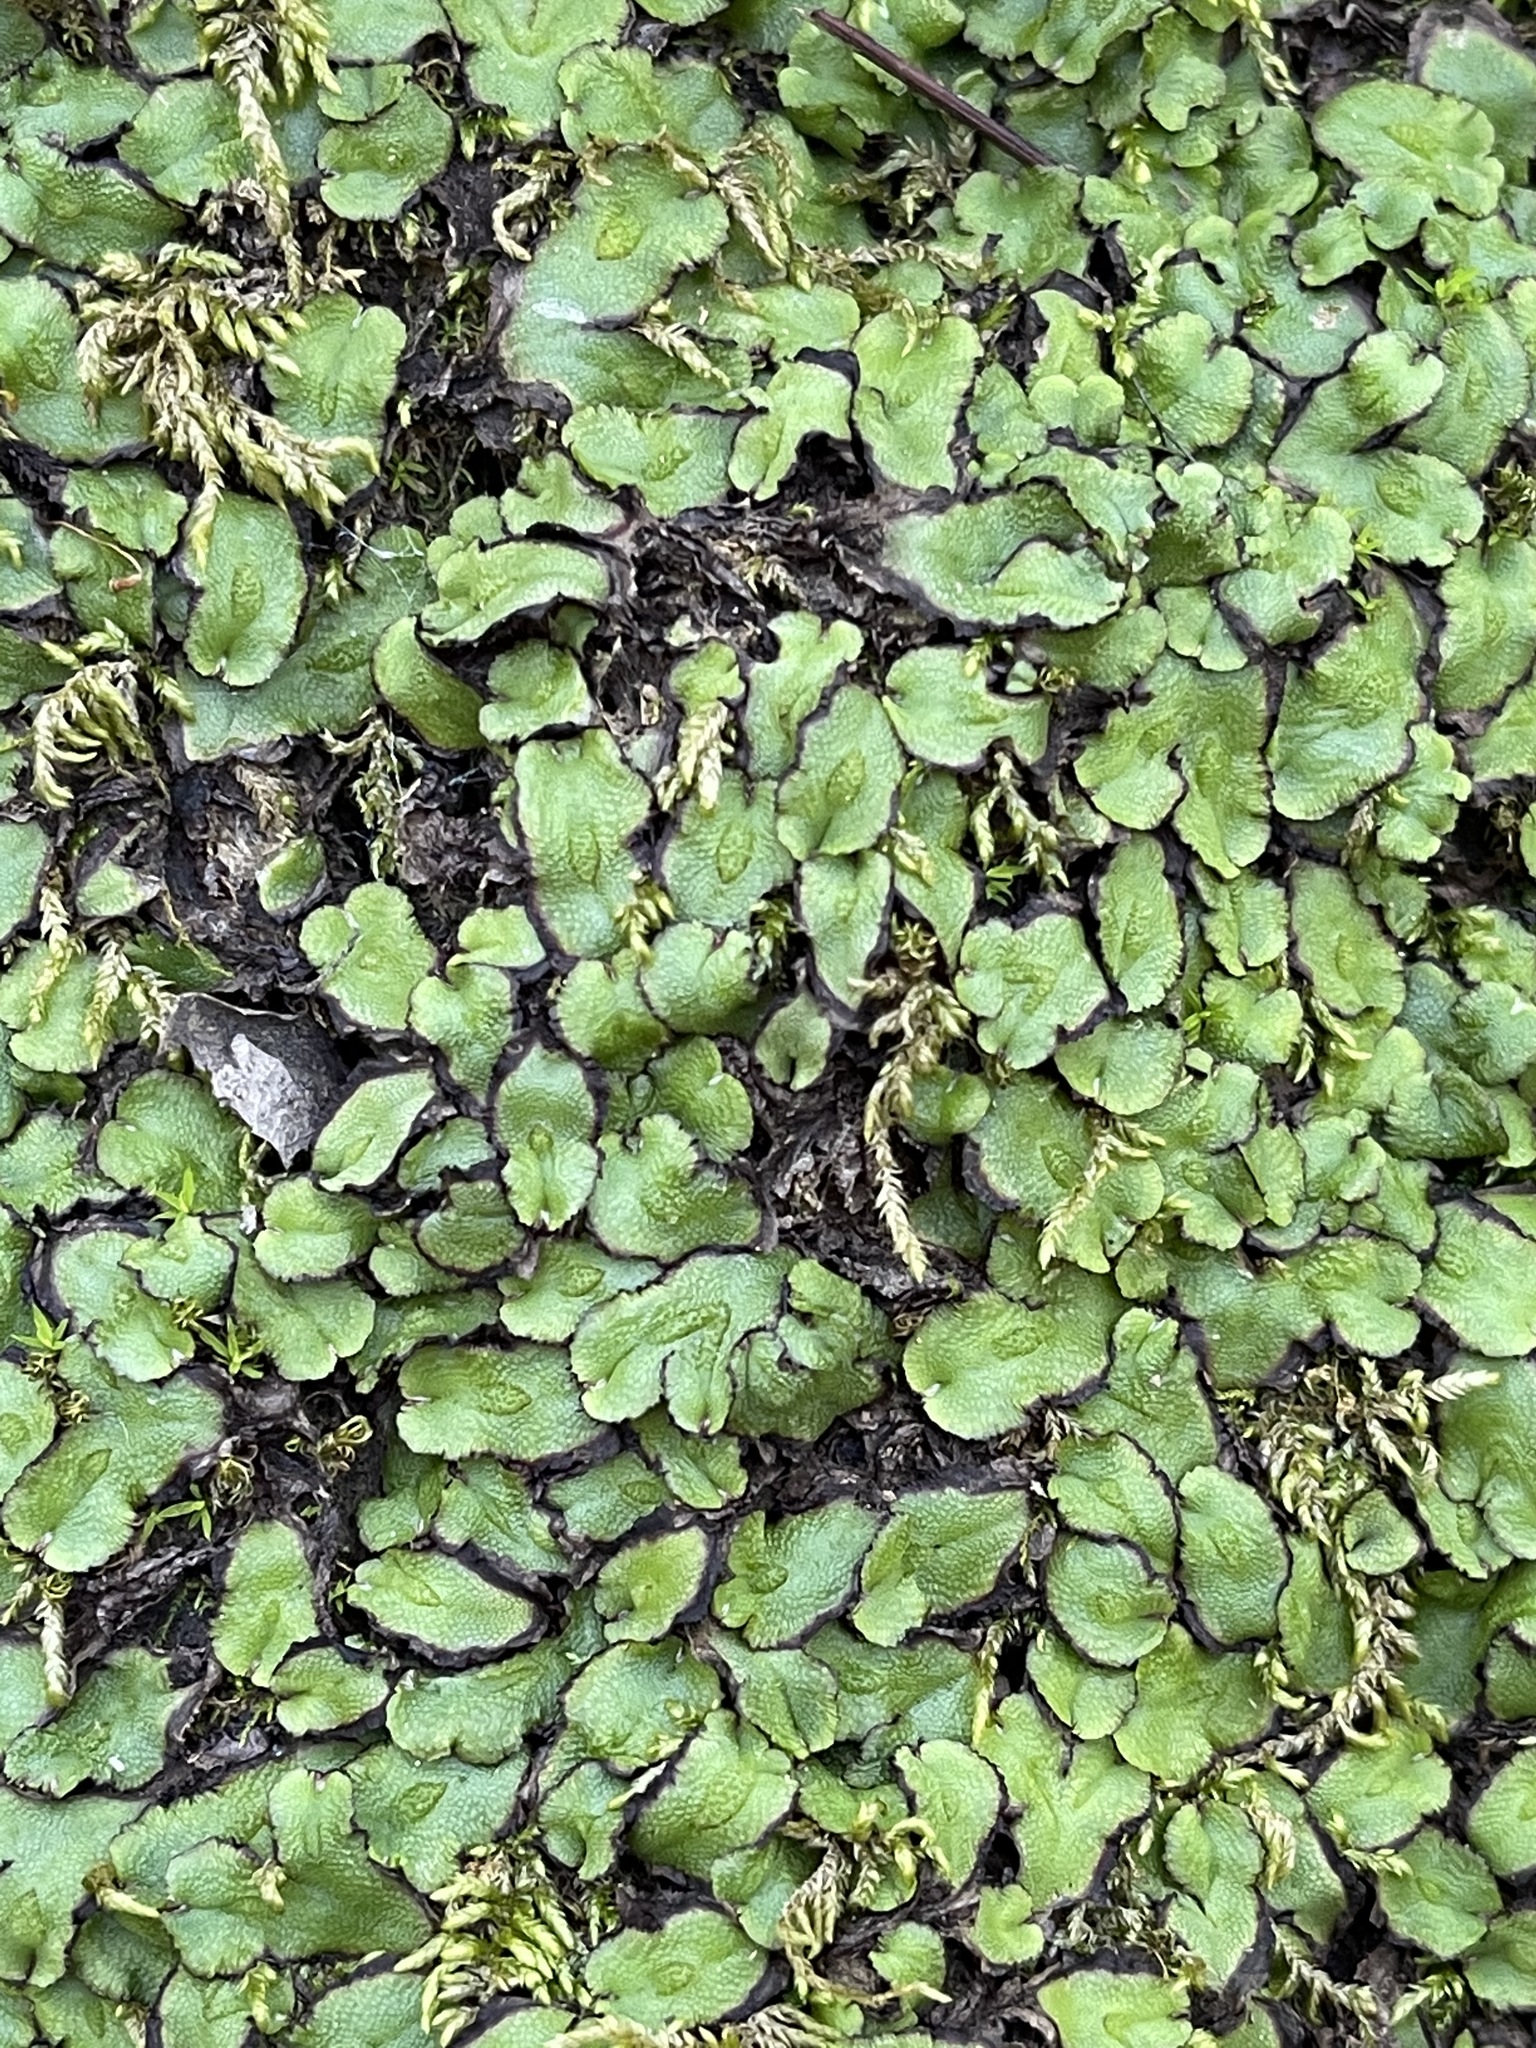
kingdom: Plantae
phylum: Marchantiophyta
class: Marchantiopsida
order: Marchantiales
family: Aytoniaceae
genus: Asterella
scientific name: Asterella californica
